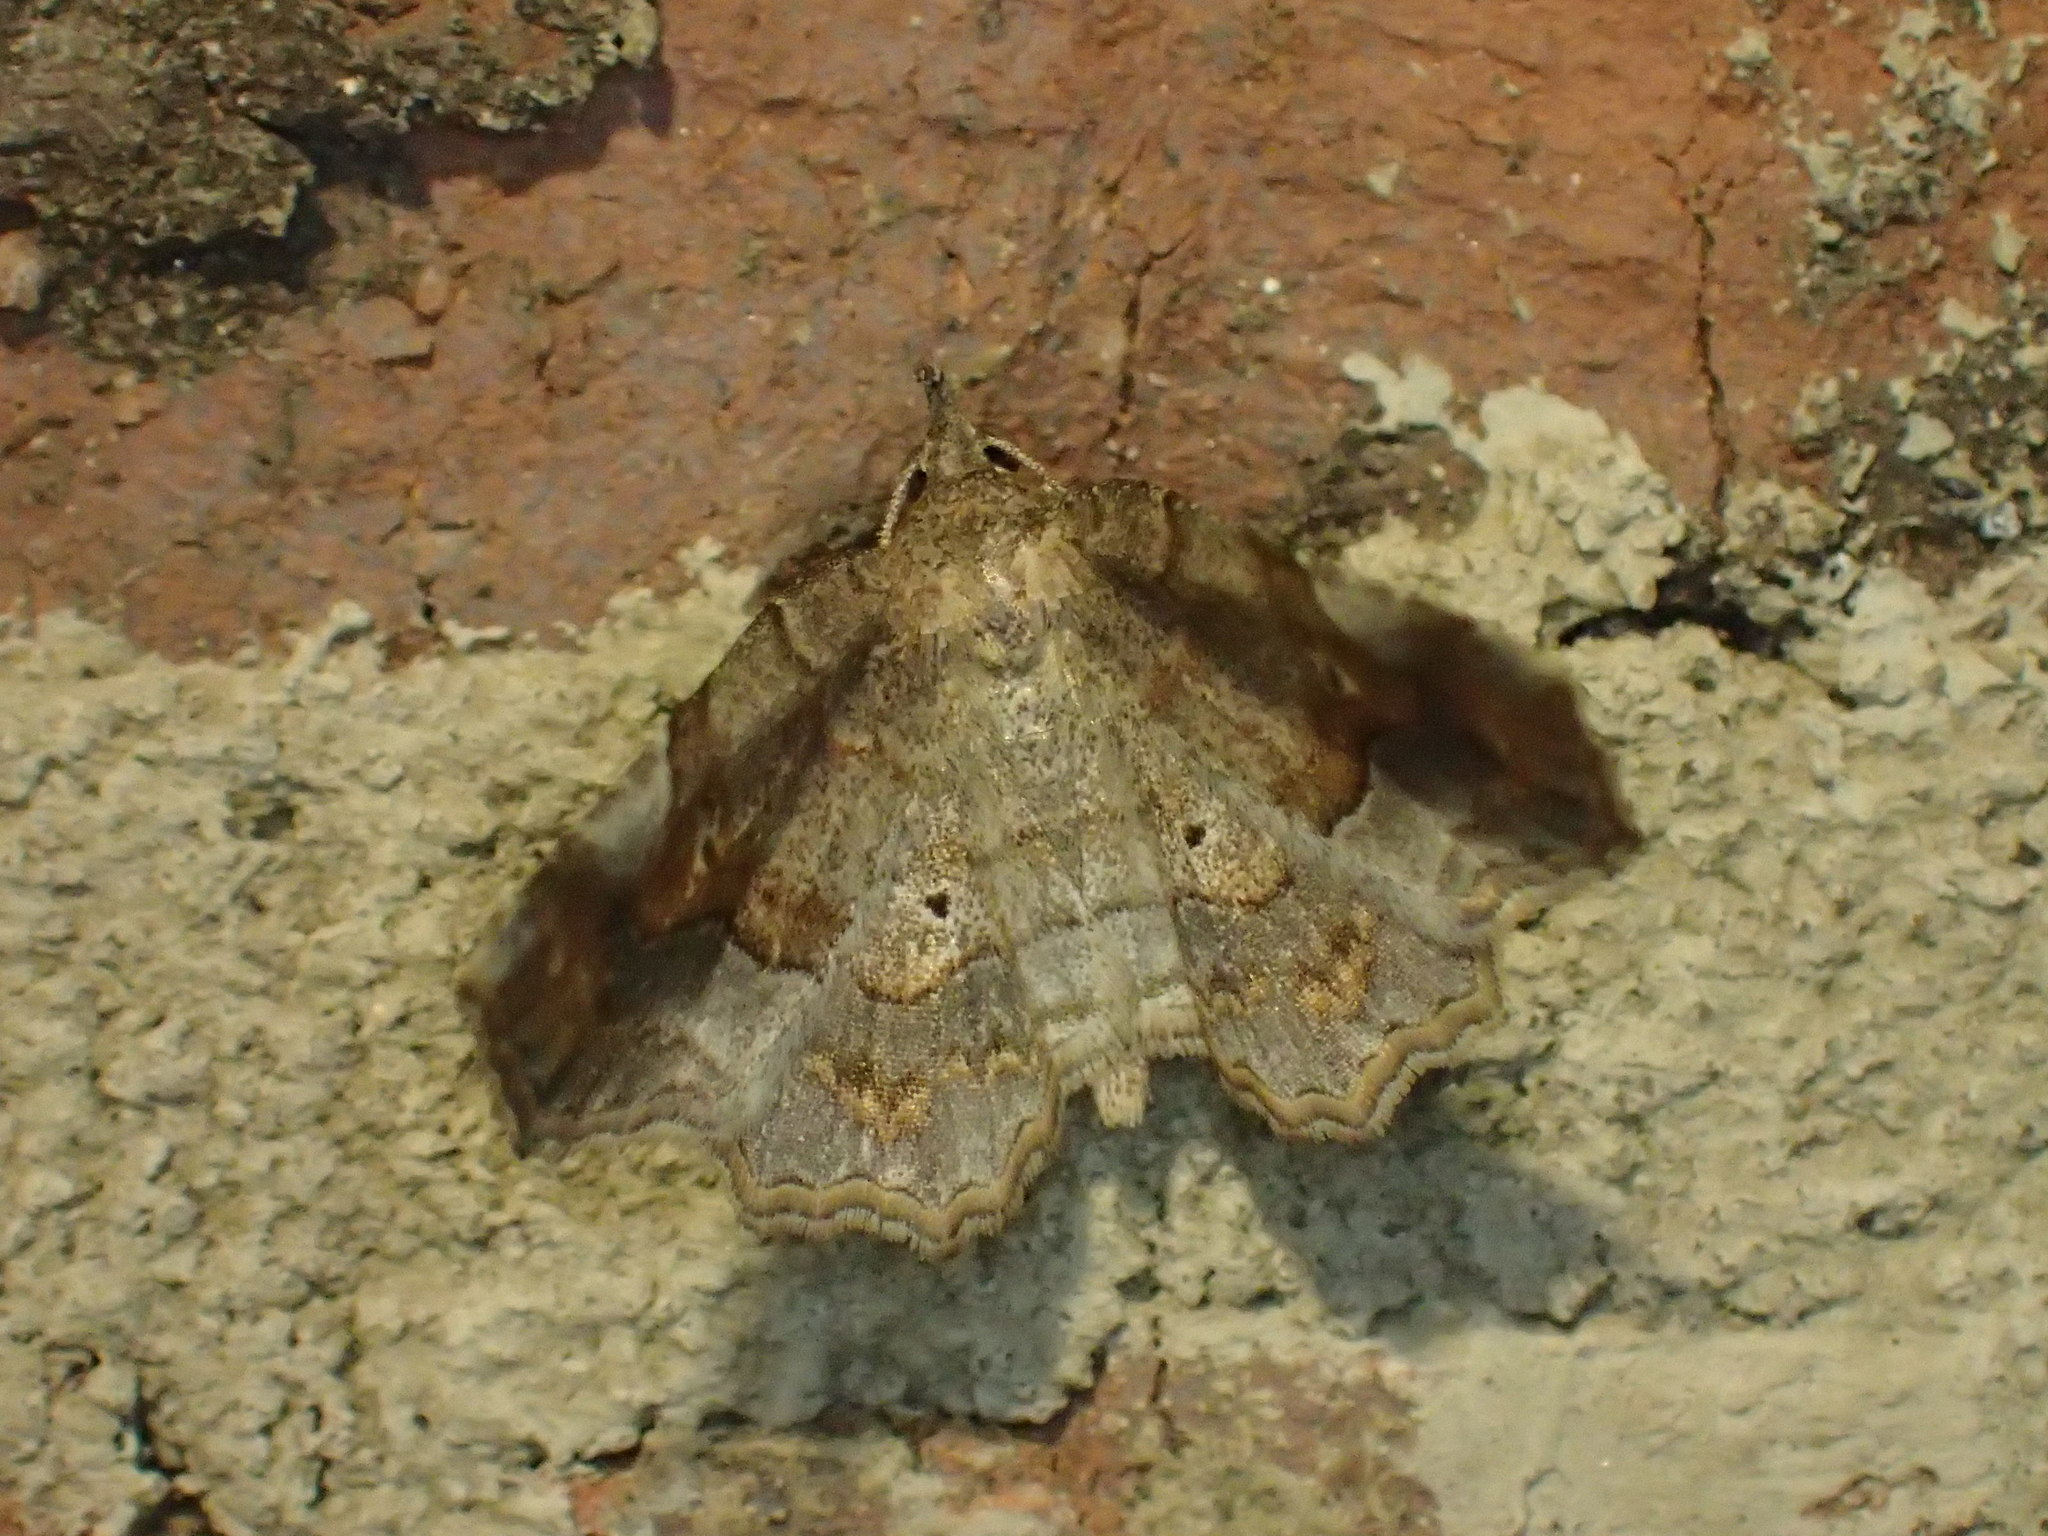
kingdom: Animalia
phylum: Arthropoda
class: Insecta
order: Lepidoptera
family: Erebidae
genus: Pangrapta
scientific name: Pangrapta decoralis
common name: Decorated owlet
